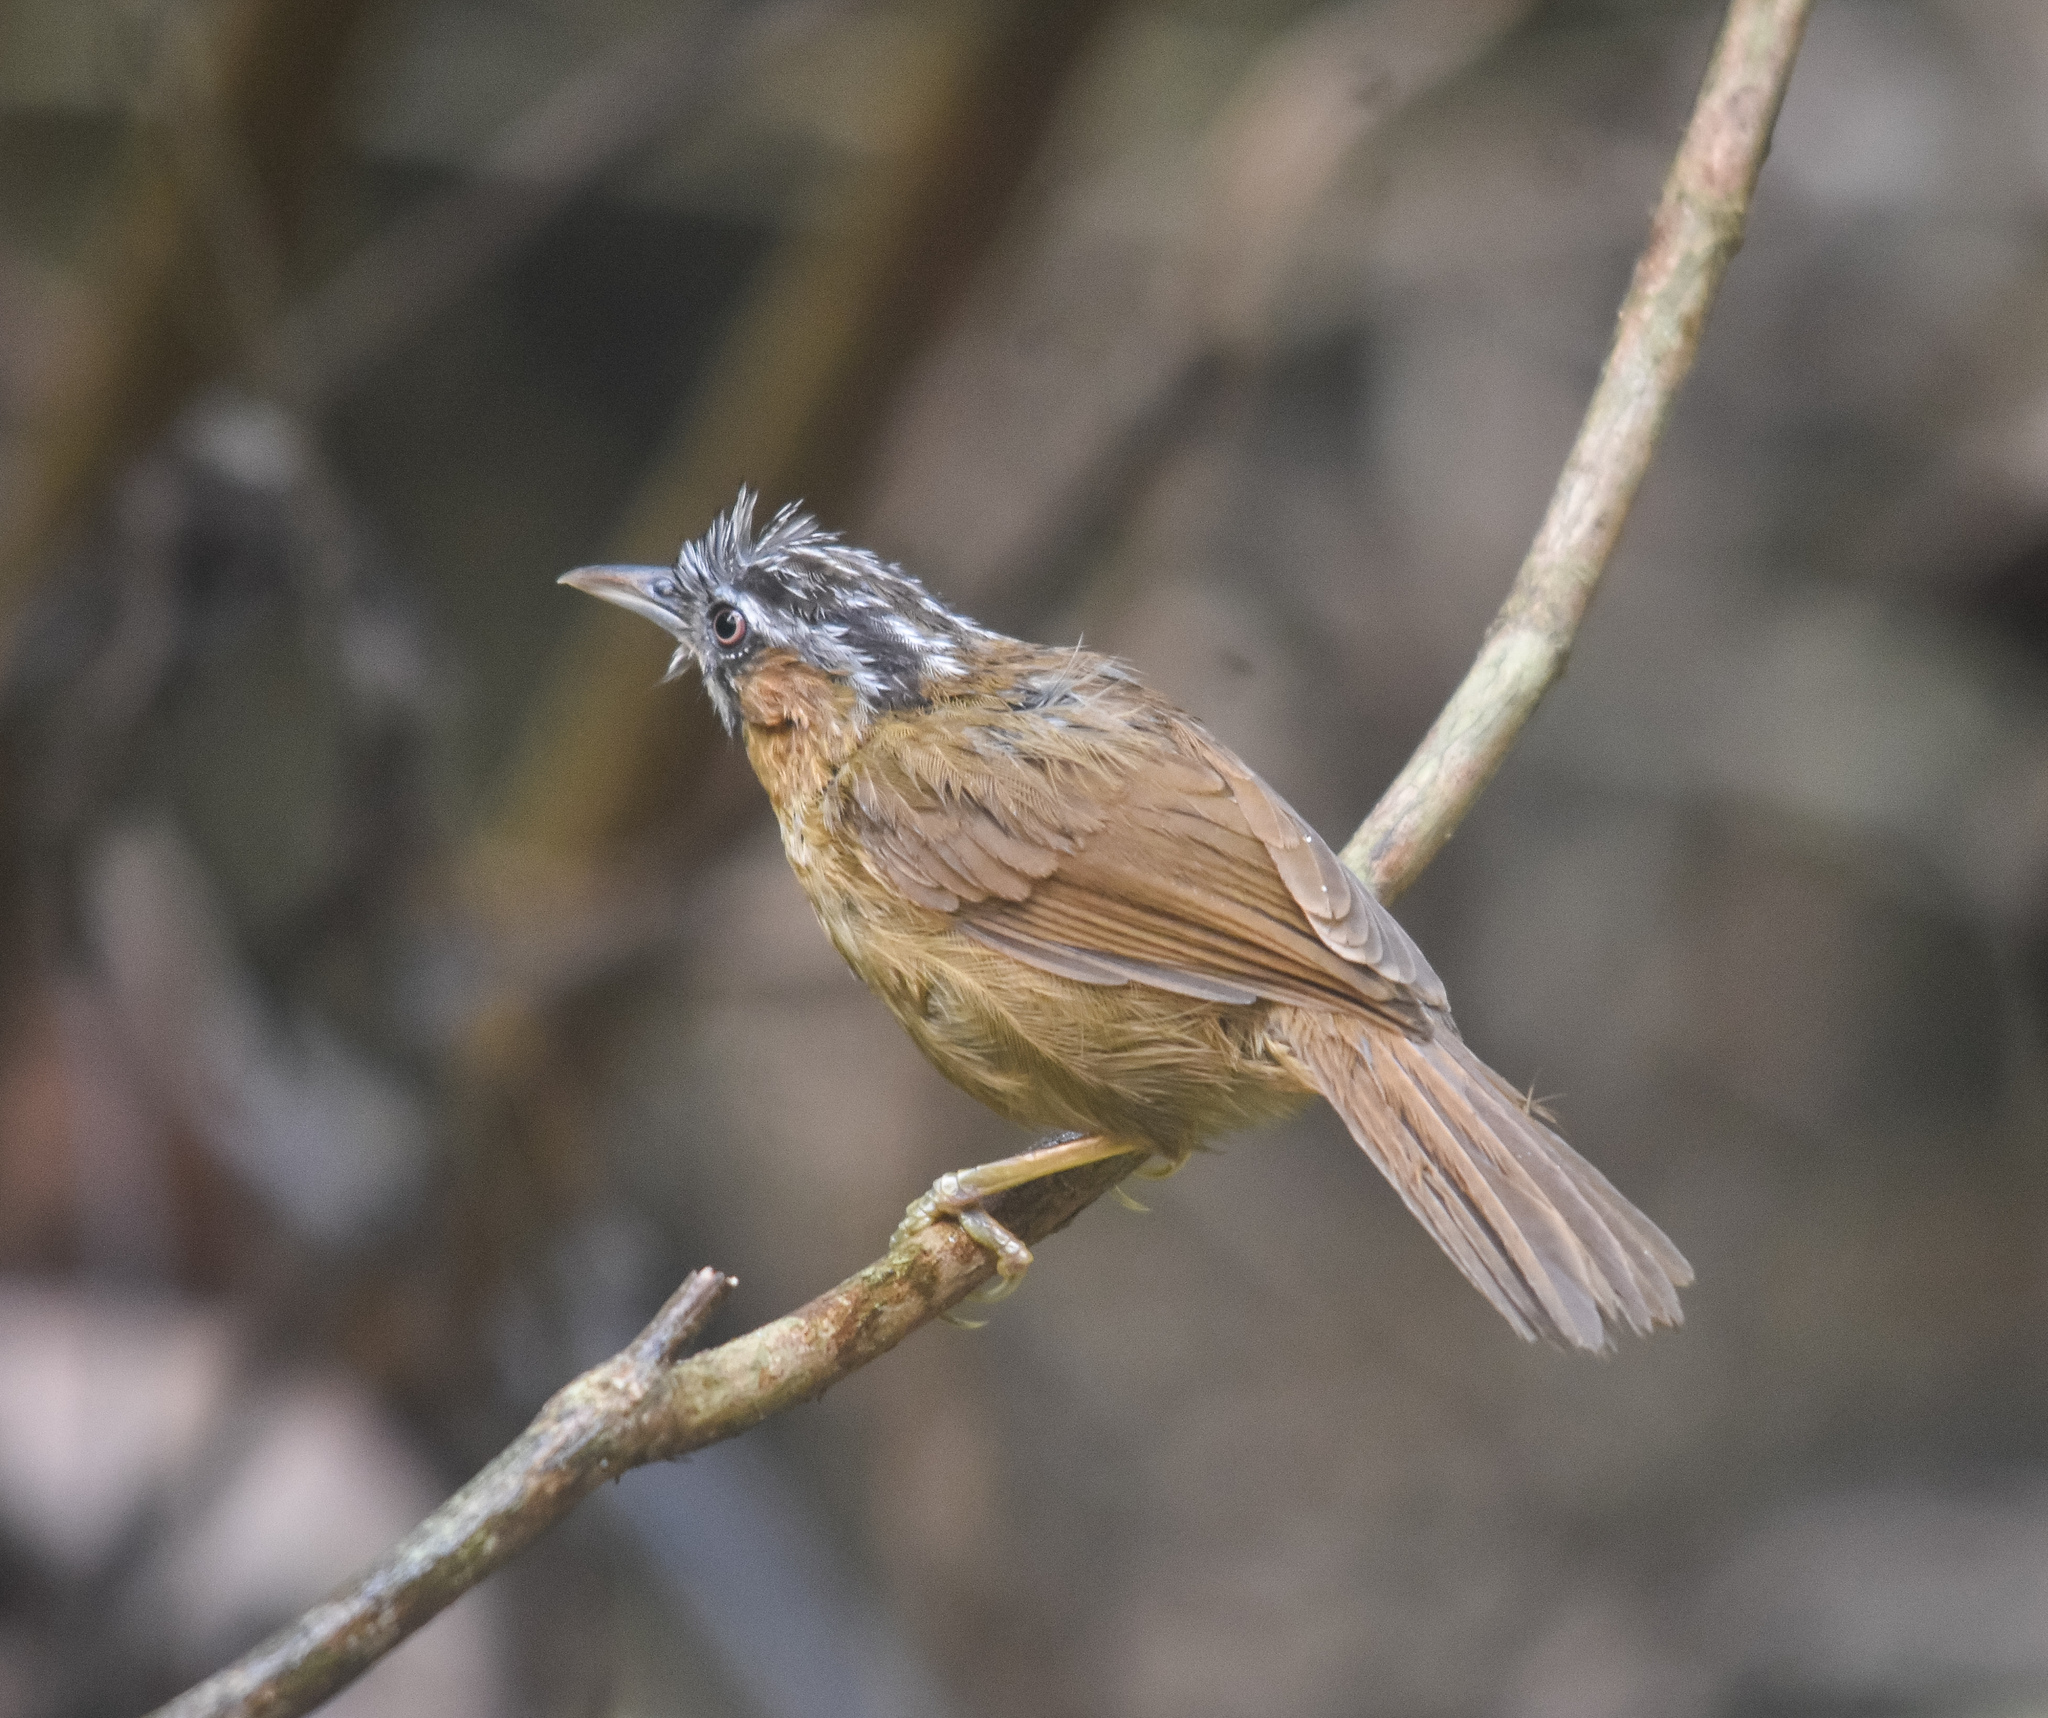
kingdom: Animalia
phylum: Arthropoda
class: Insecta
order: Lepidoptera
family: Nymphalidae
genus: Tanaecia
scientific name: Tanaecia lepidea
